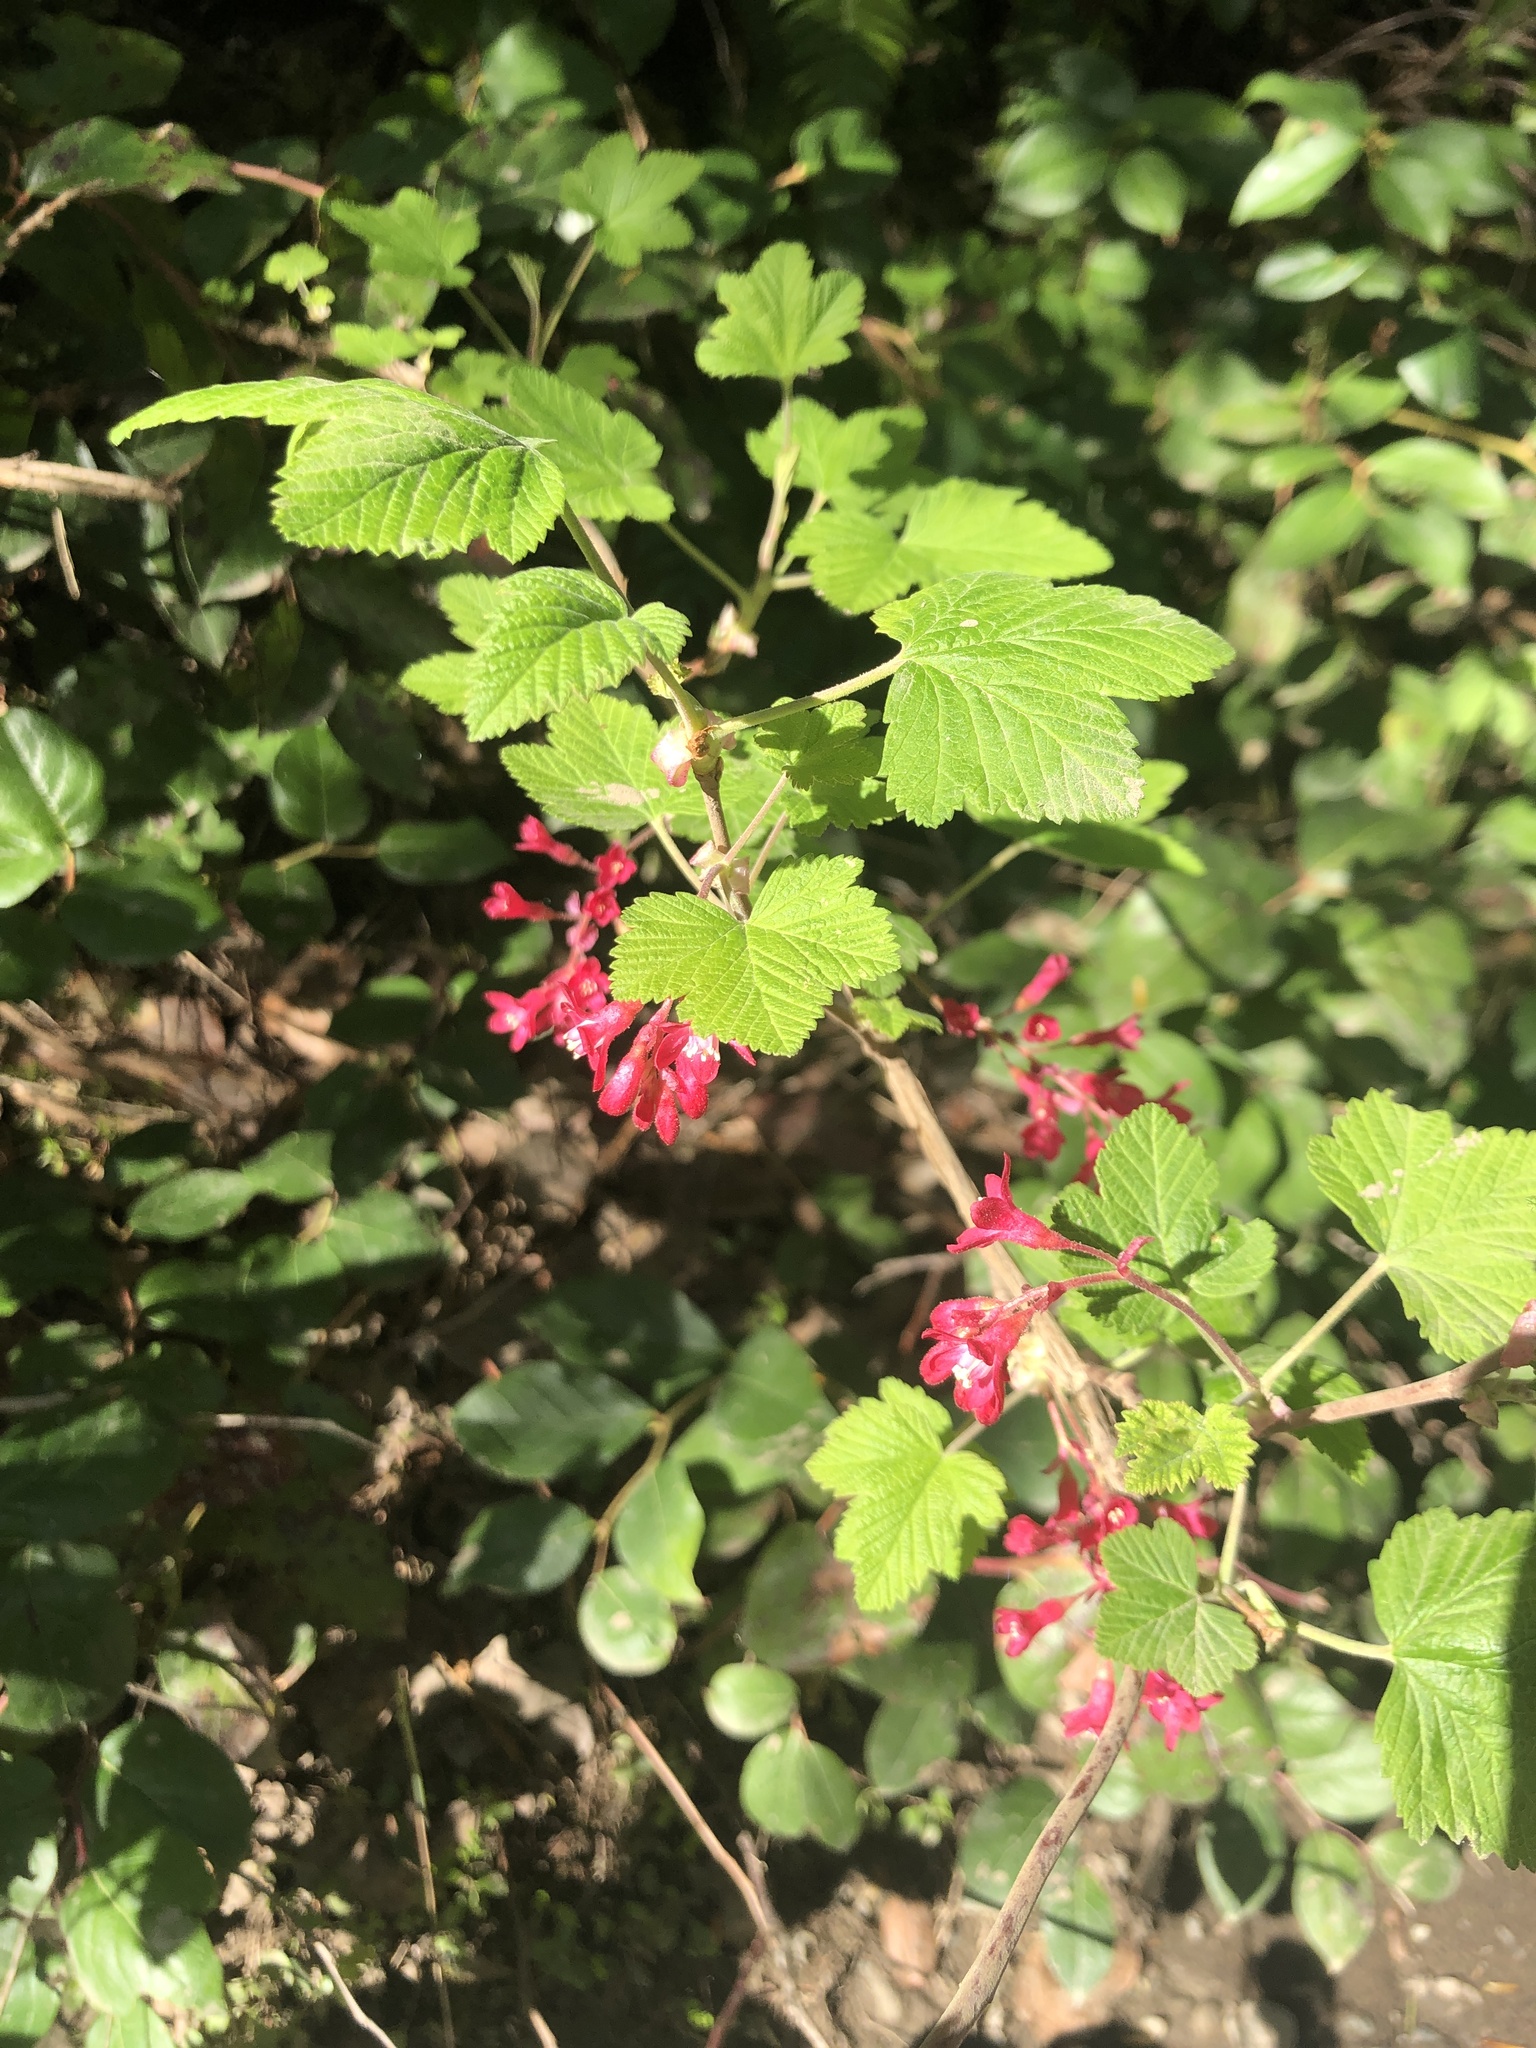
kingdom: Plantae
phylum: Tracheophyta
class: Magnoliopsida
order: Saxifragales
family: Grossulariaceae
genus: Ribes
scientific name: Ribes sanguineum
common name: Flowering currant
